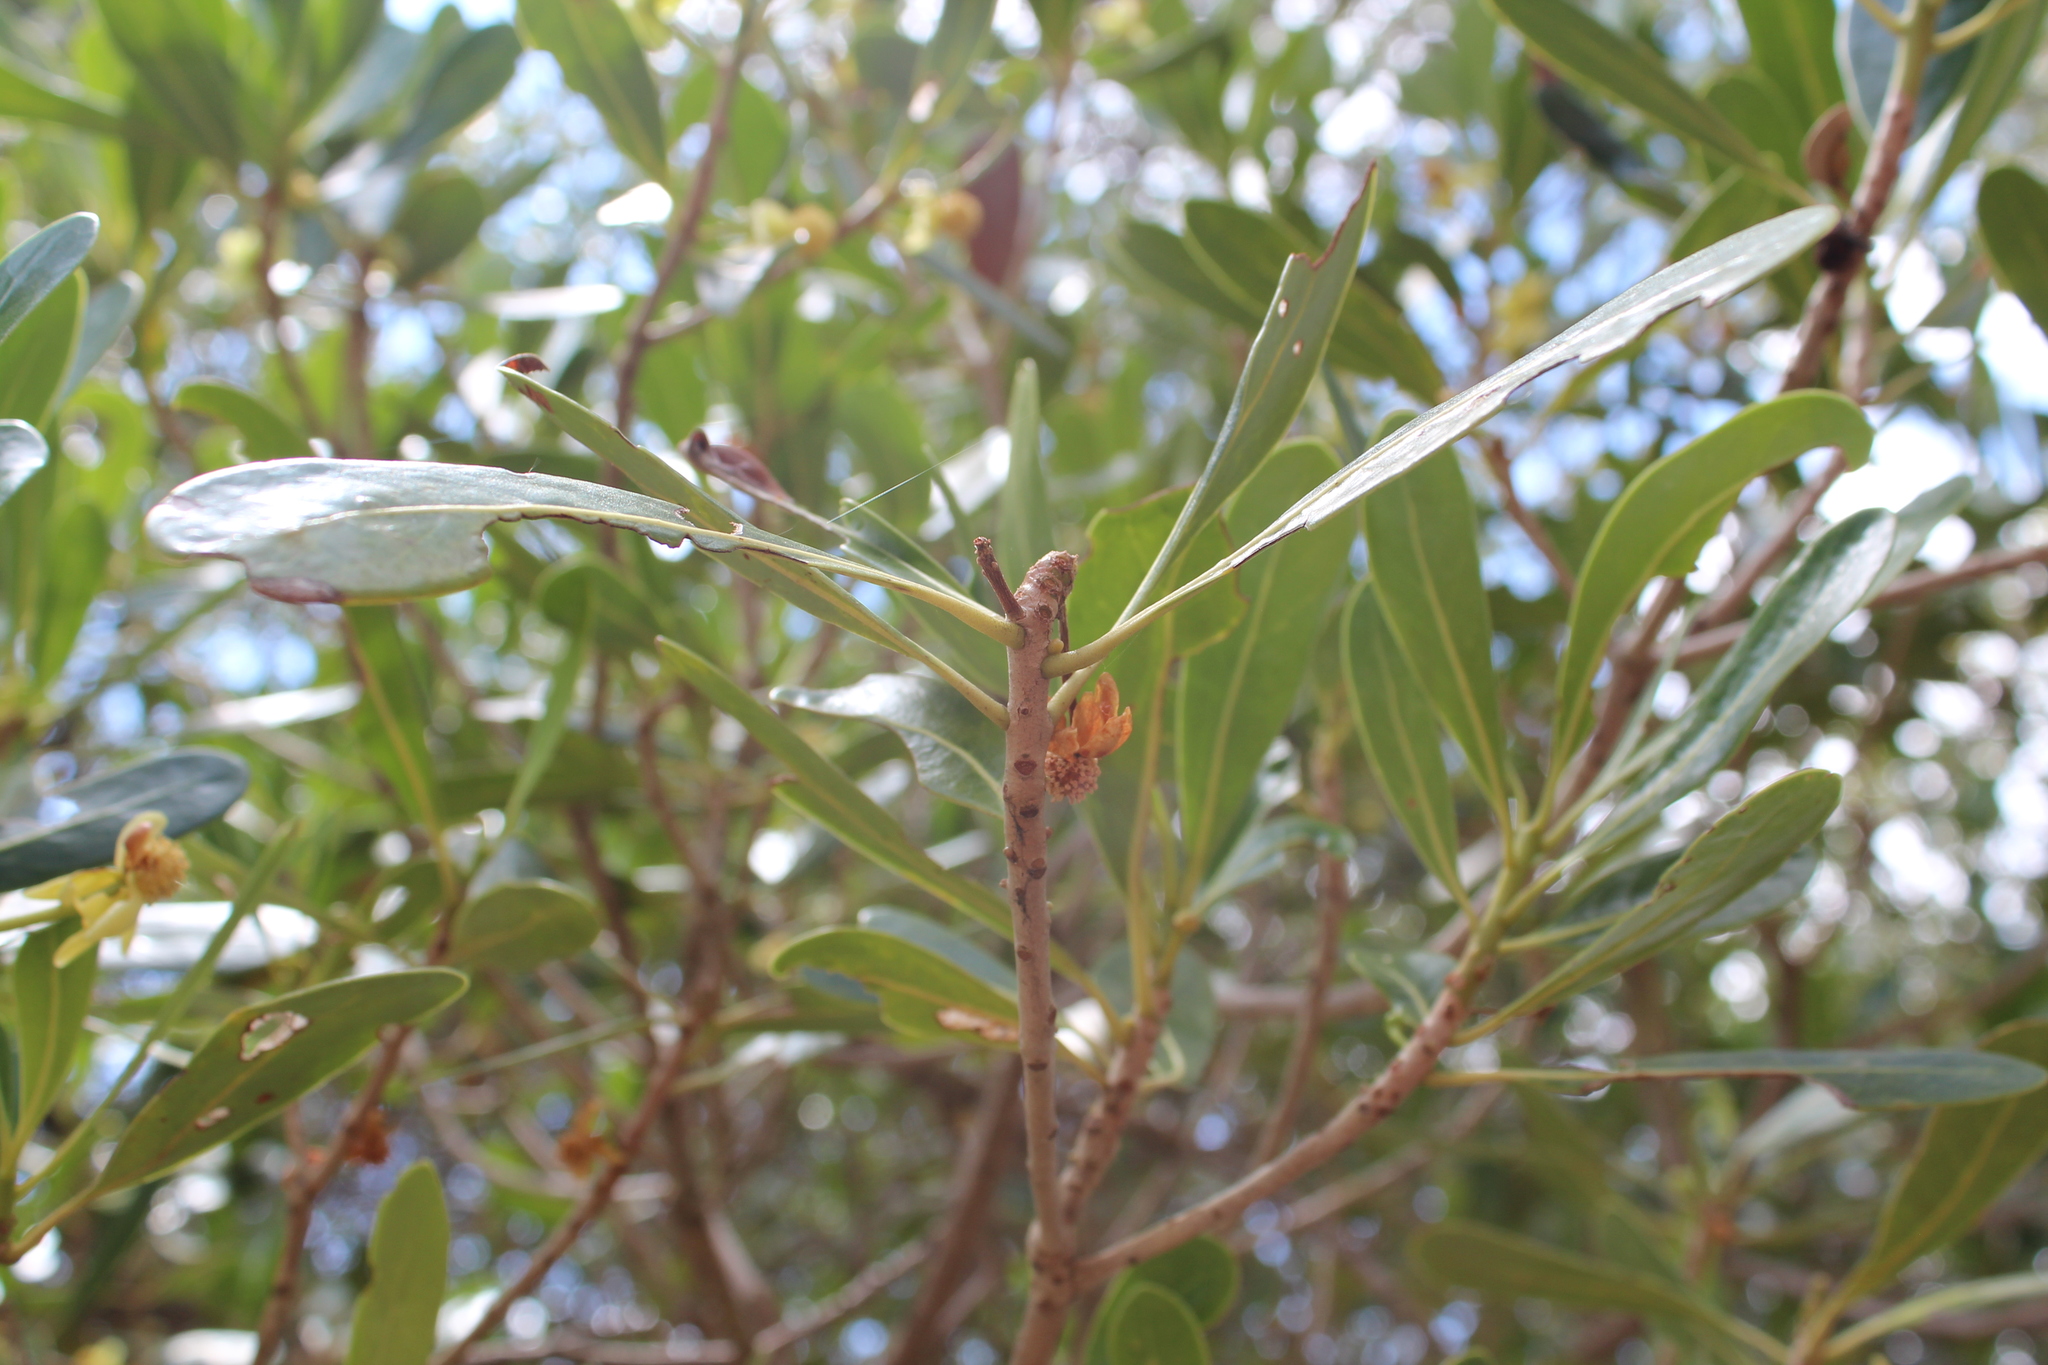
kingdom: Plantae
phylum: Tracheophyta
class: Magnoliopsida
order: Malpighiales
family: Phyllanthaceae
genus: Uapaca
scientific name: Uapaca bojeri
